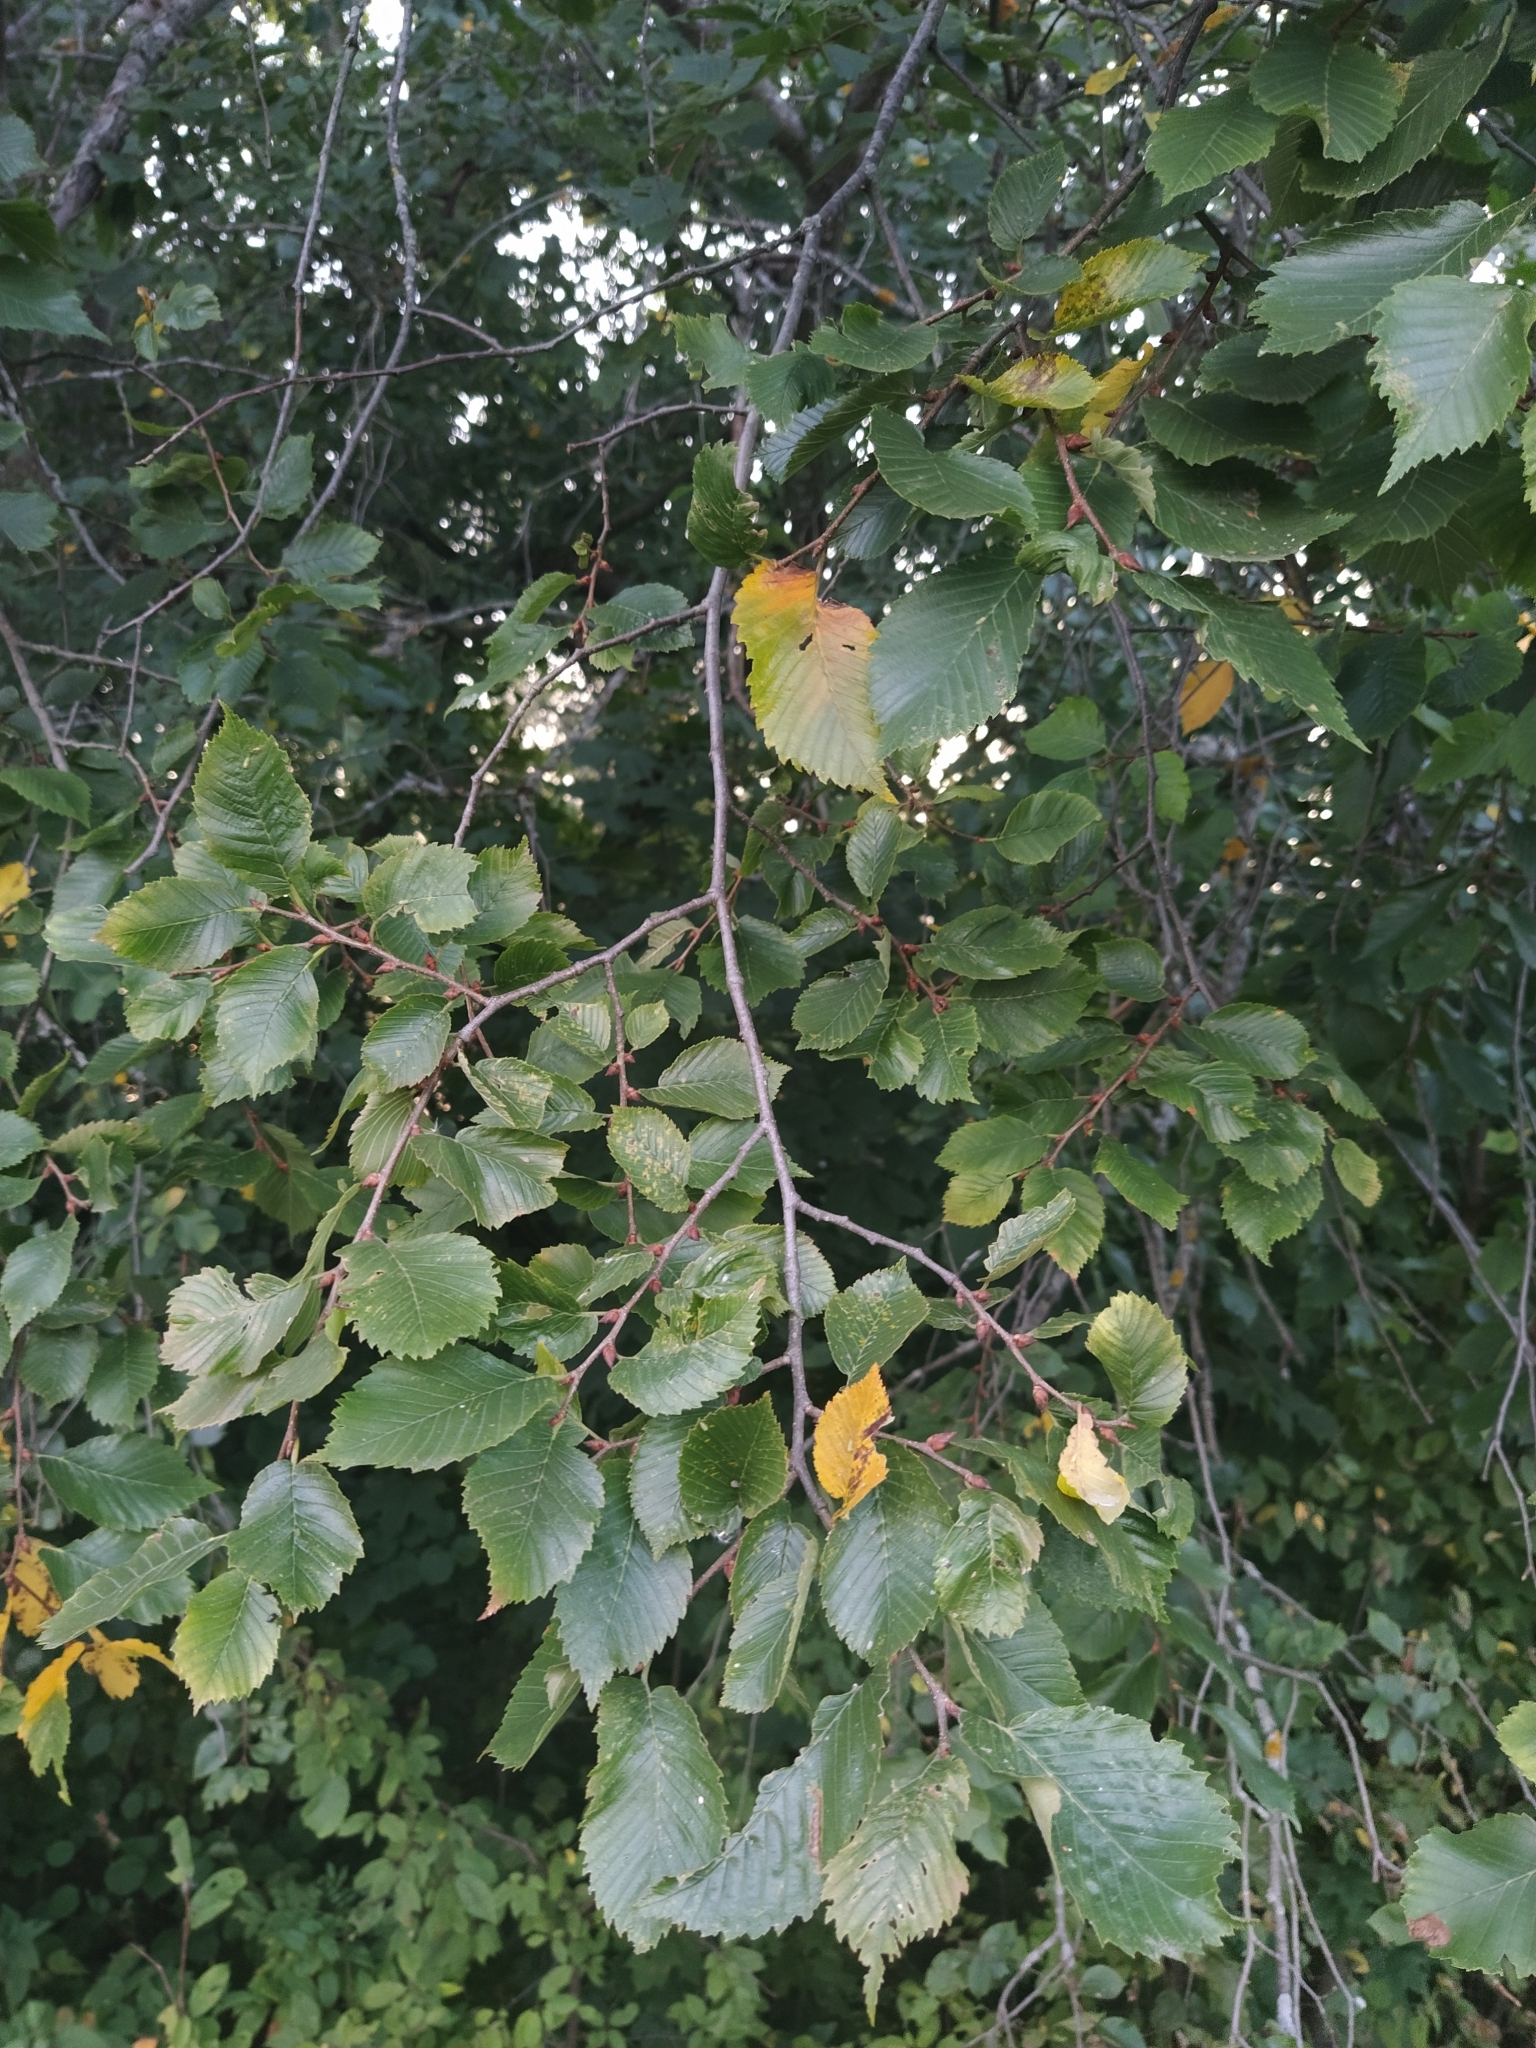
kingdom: Plantae
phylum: Tracheophyta
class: Magnoliopsida
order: Rosales
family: Ulmaceae
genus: Ulmus
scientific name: Ulmus laevis
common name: European white-elm
